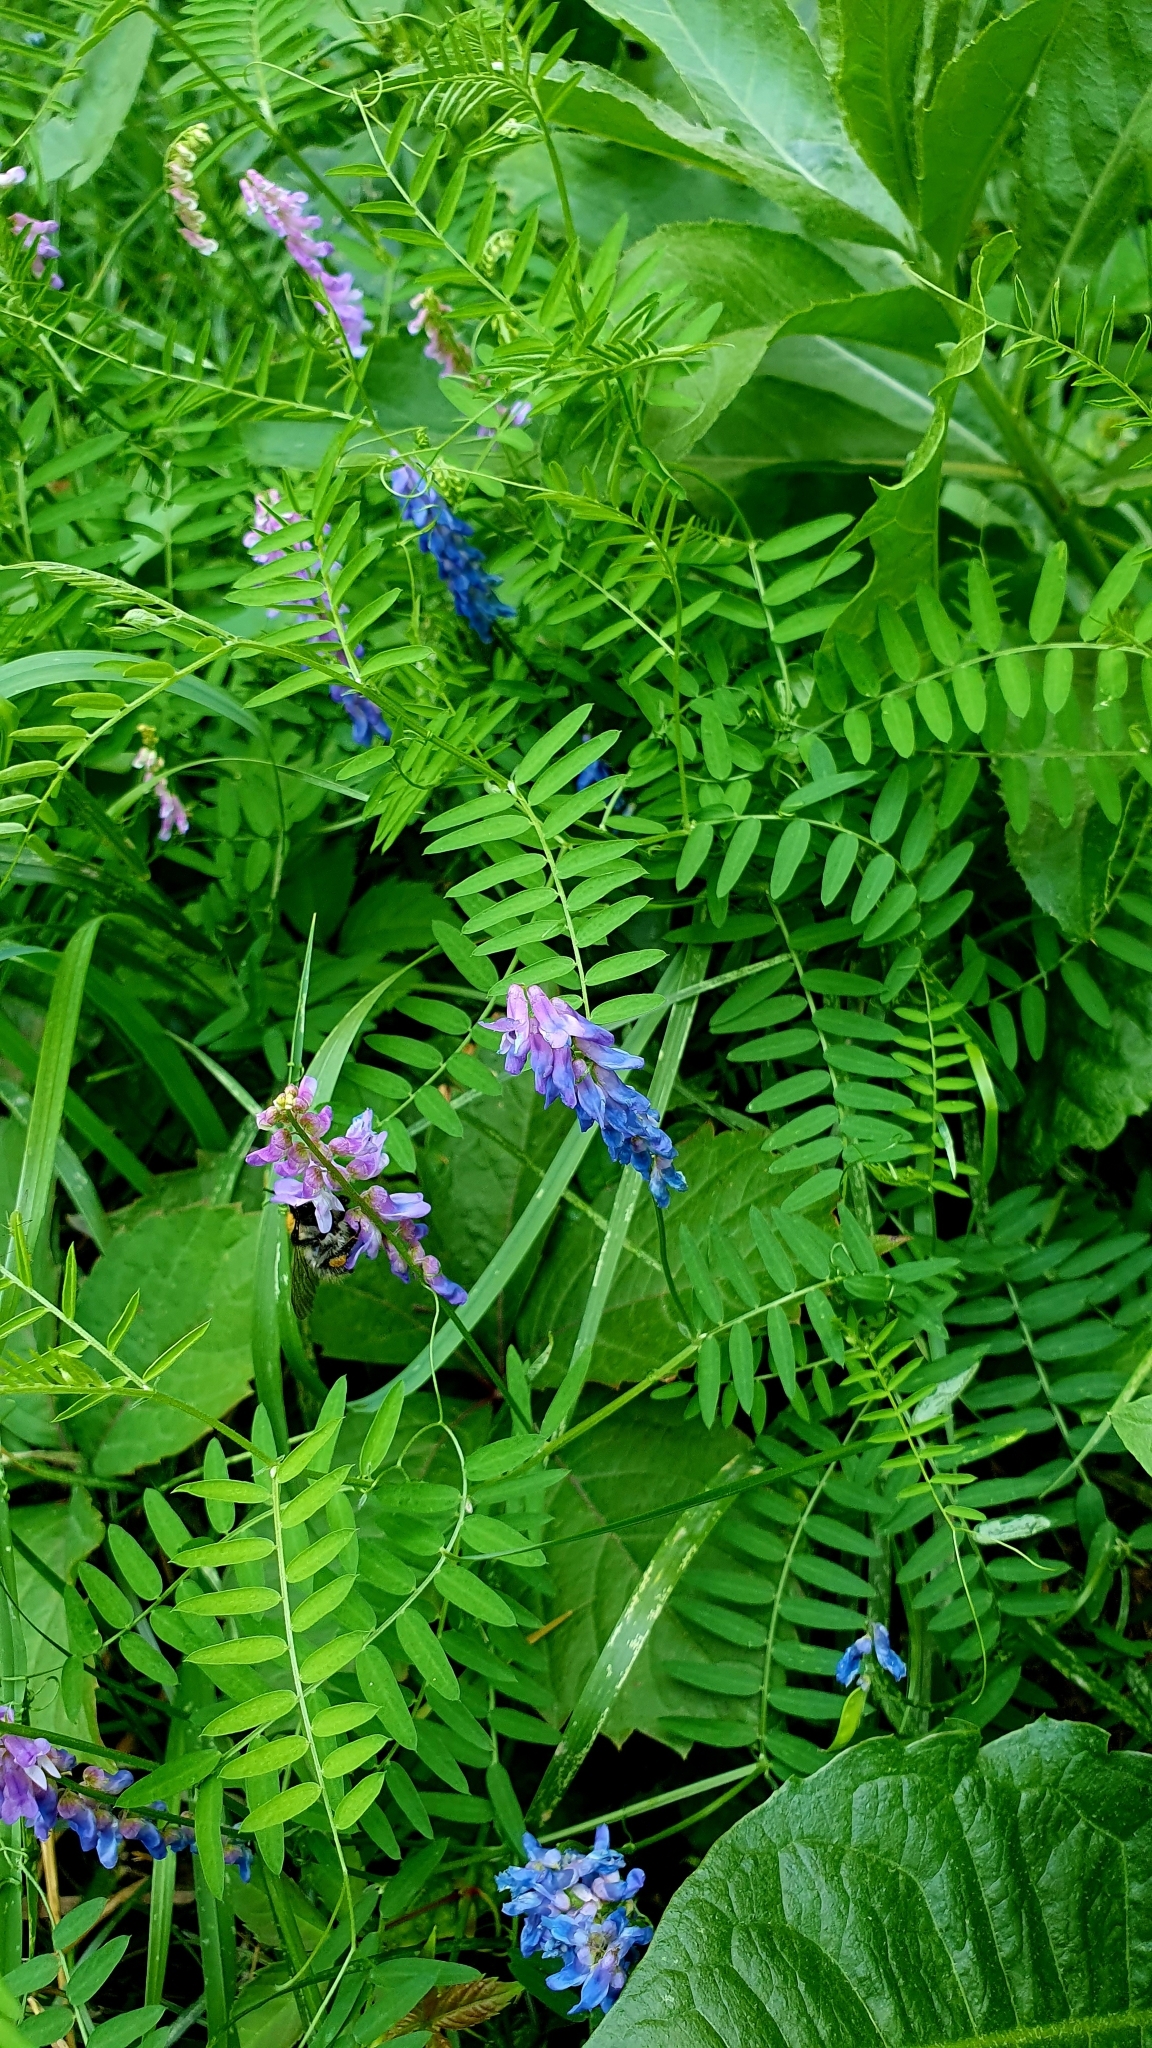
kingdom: Plantae
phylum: Tracheophyta
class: Magnoliopsida
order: Fabales
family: Fabaceae
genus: Vicia
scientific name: Vicia cracca
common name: Bird vetch
